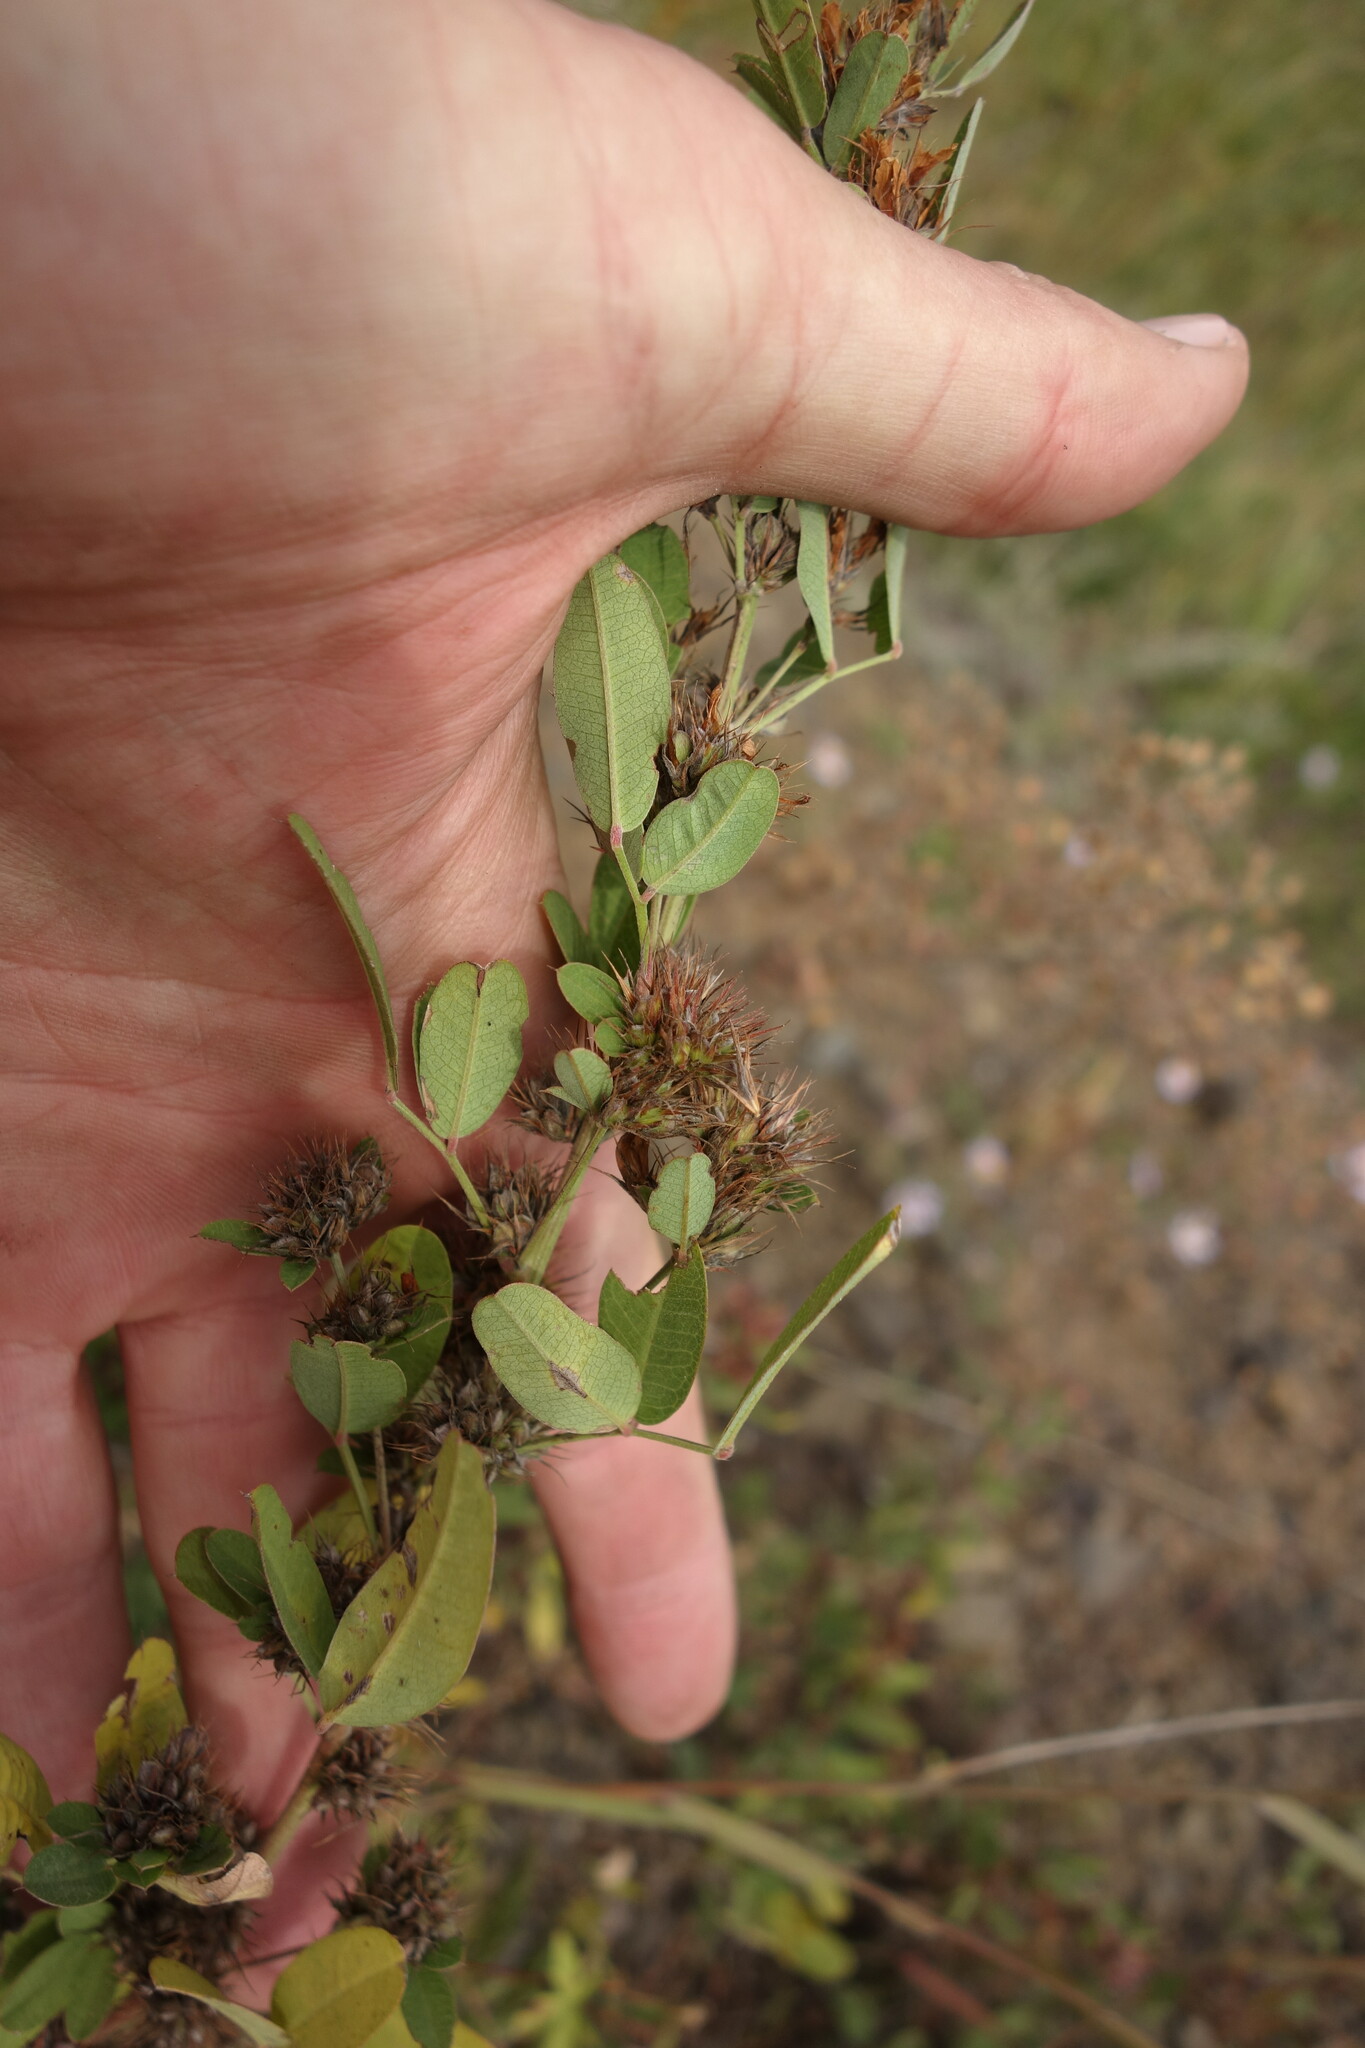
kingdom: Plantae
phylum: Tracheophyta
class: Magnoliopsida
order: Fabales
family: Fabaceae
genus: Lespedeza
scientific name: Lespedeza daurica
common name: Dahurian lespedeza
